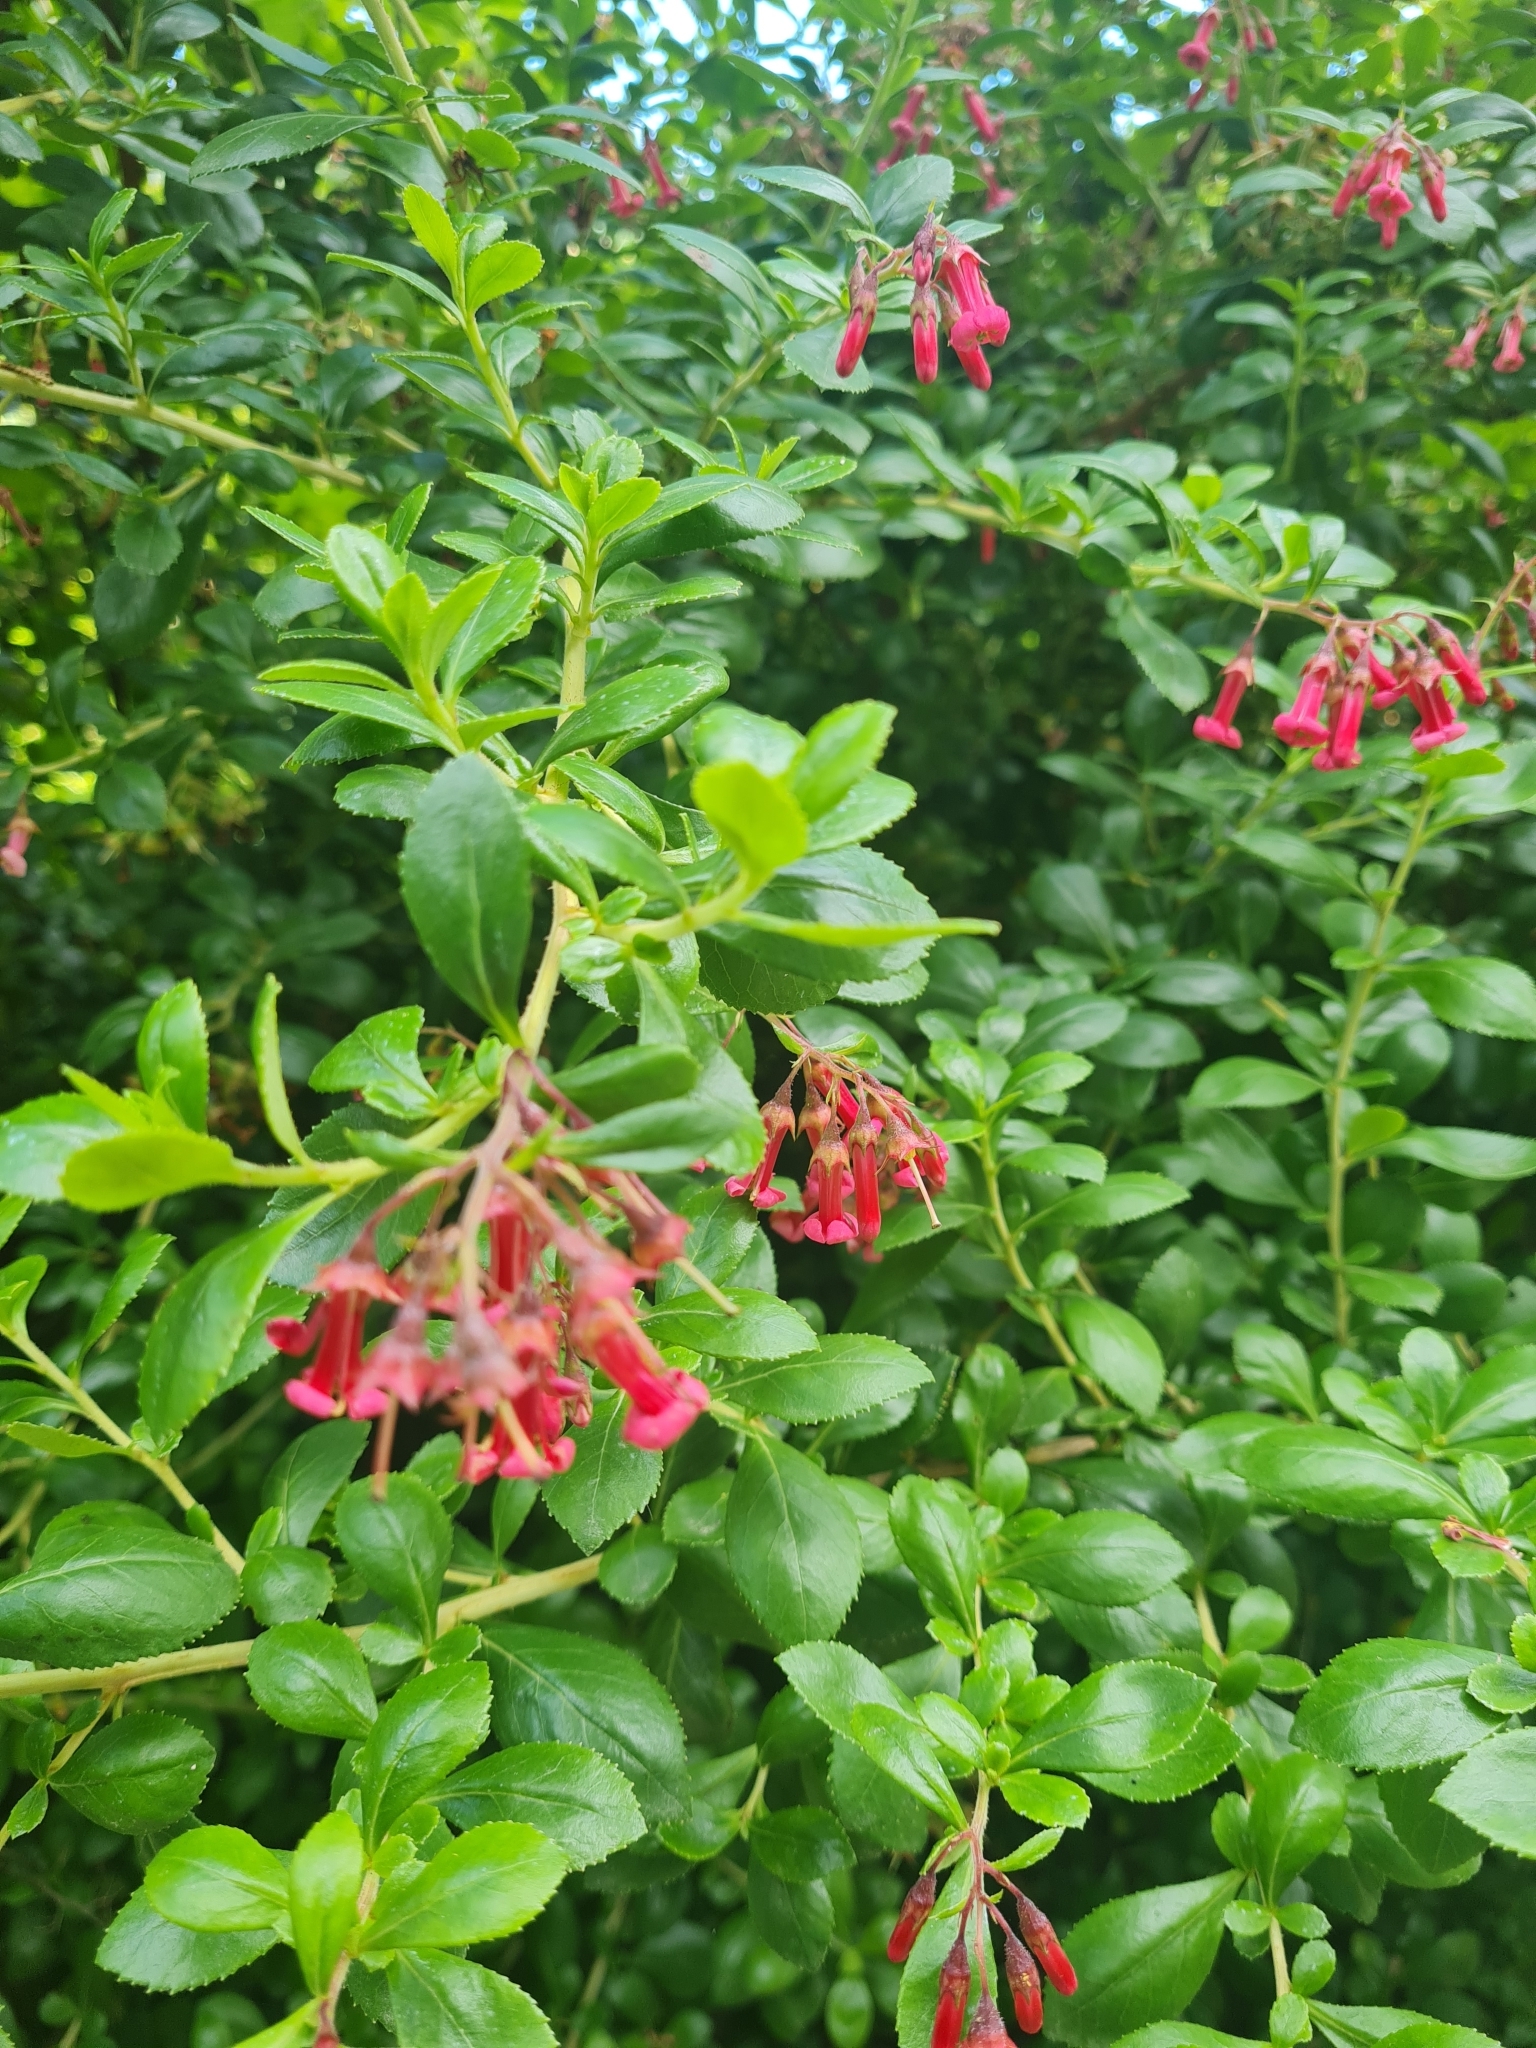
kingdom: Plantae
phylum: Tracheophyta
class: Magnoliopsida
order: Escalloniales
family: Escalloniaceae
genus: Escallonia
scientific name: Escallonia rubra
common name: Redclaws
